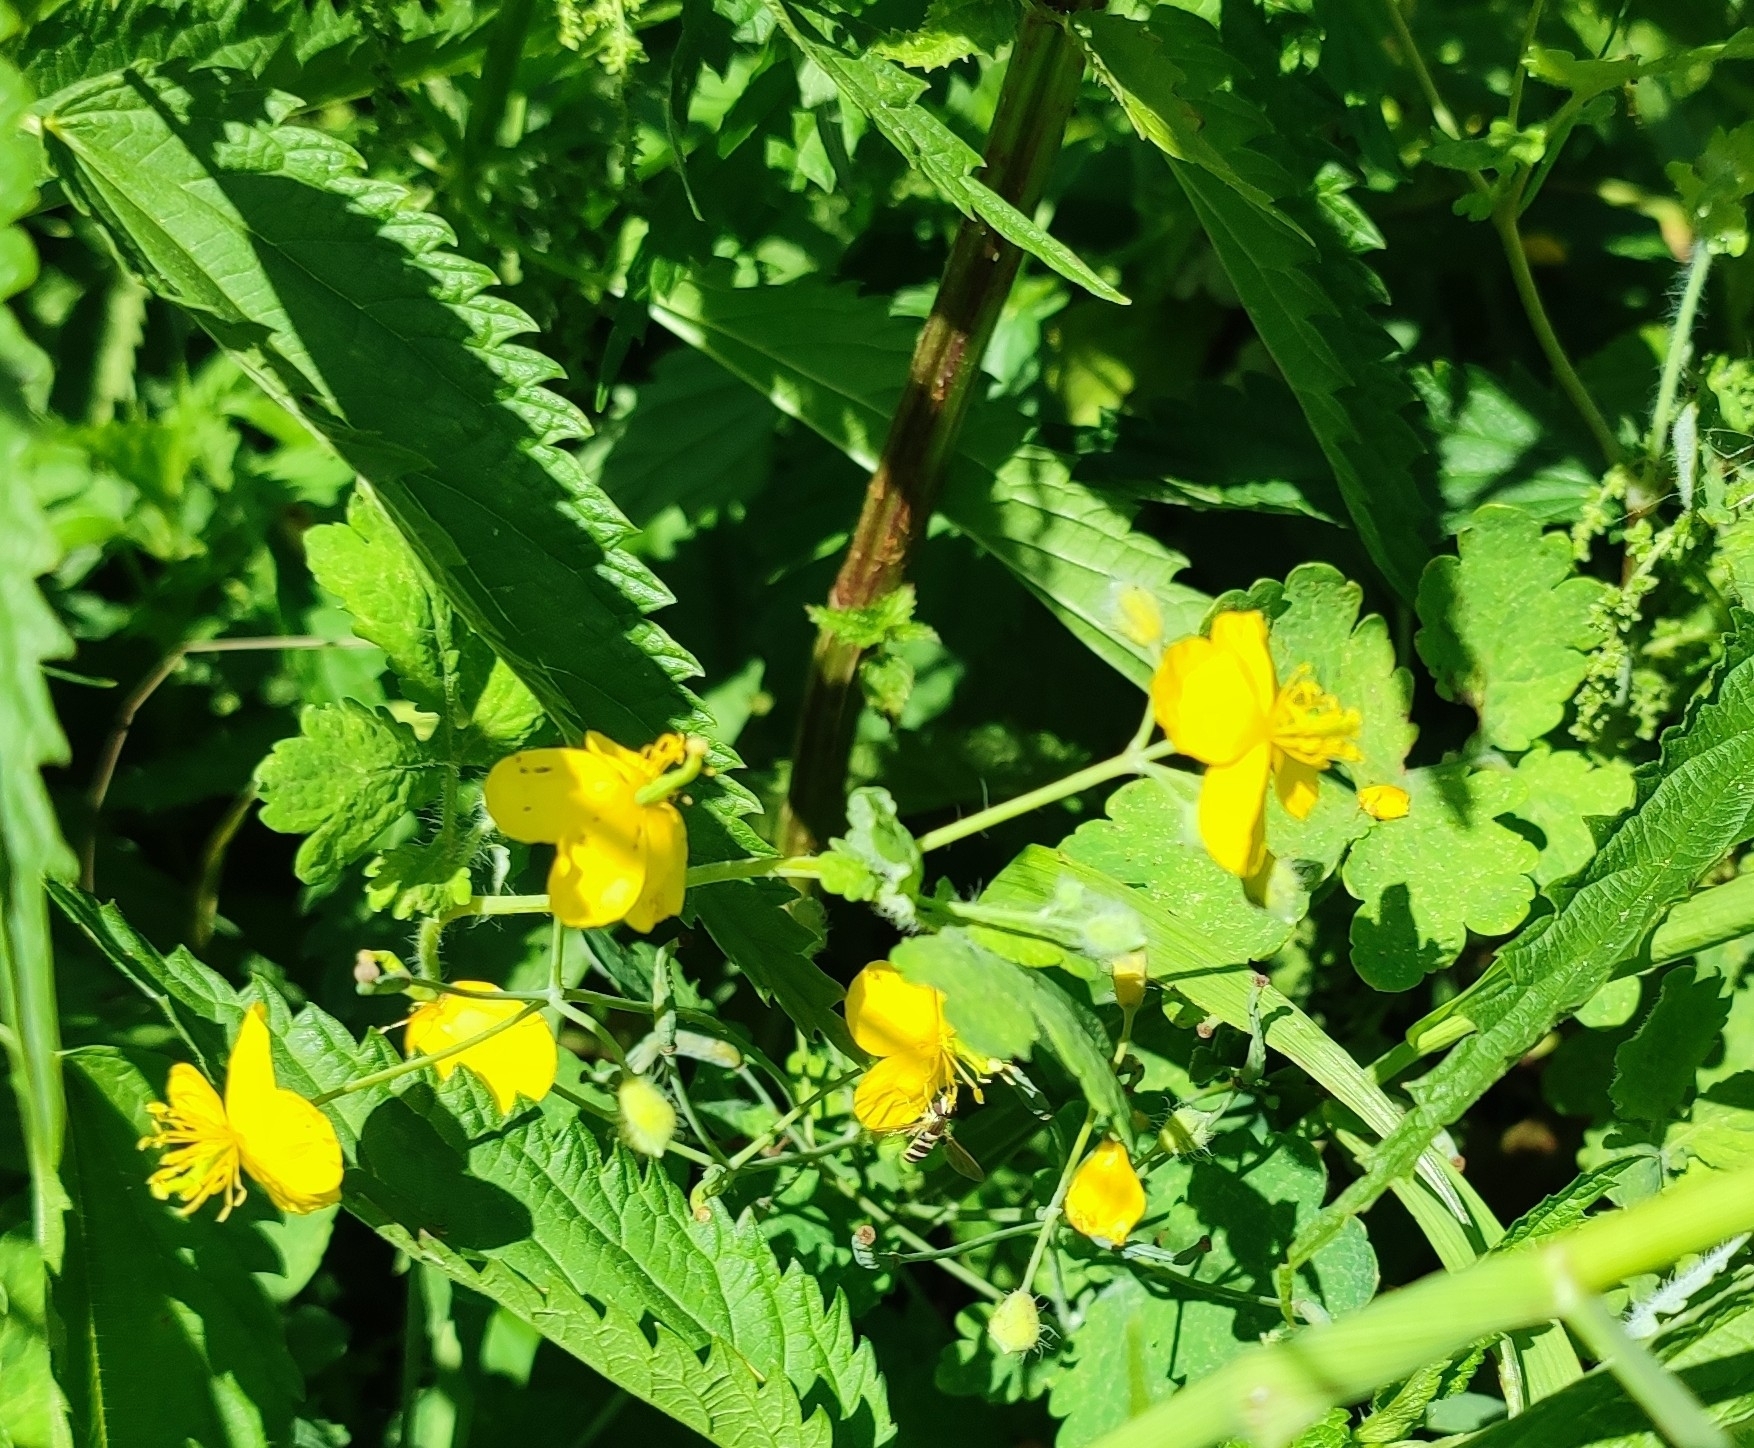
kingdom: Plantae
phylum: Tracheophyta
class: Magnoliopsida
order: Ranunculales
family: Papaveraceae
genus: Chelidonium
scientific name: Chelidonium majus
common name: Greater celandine
